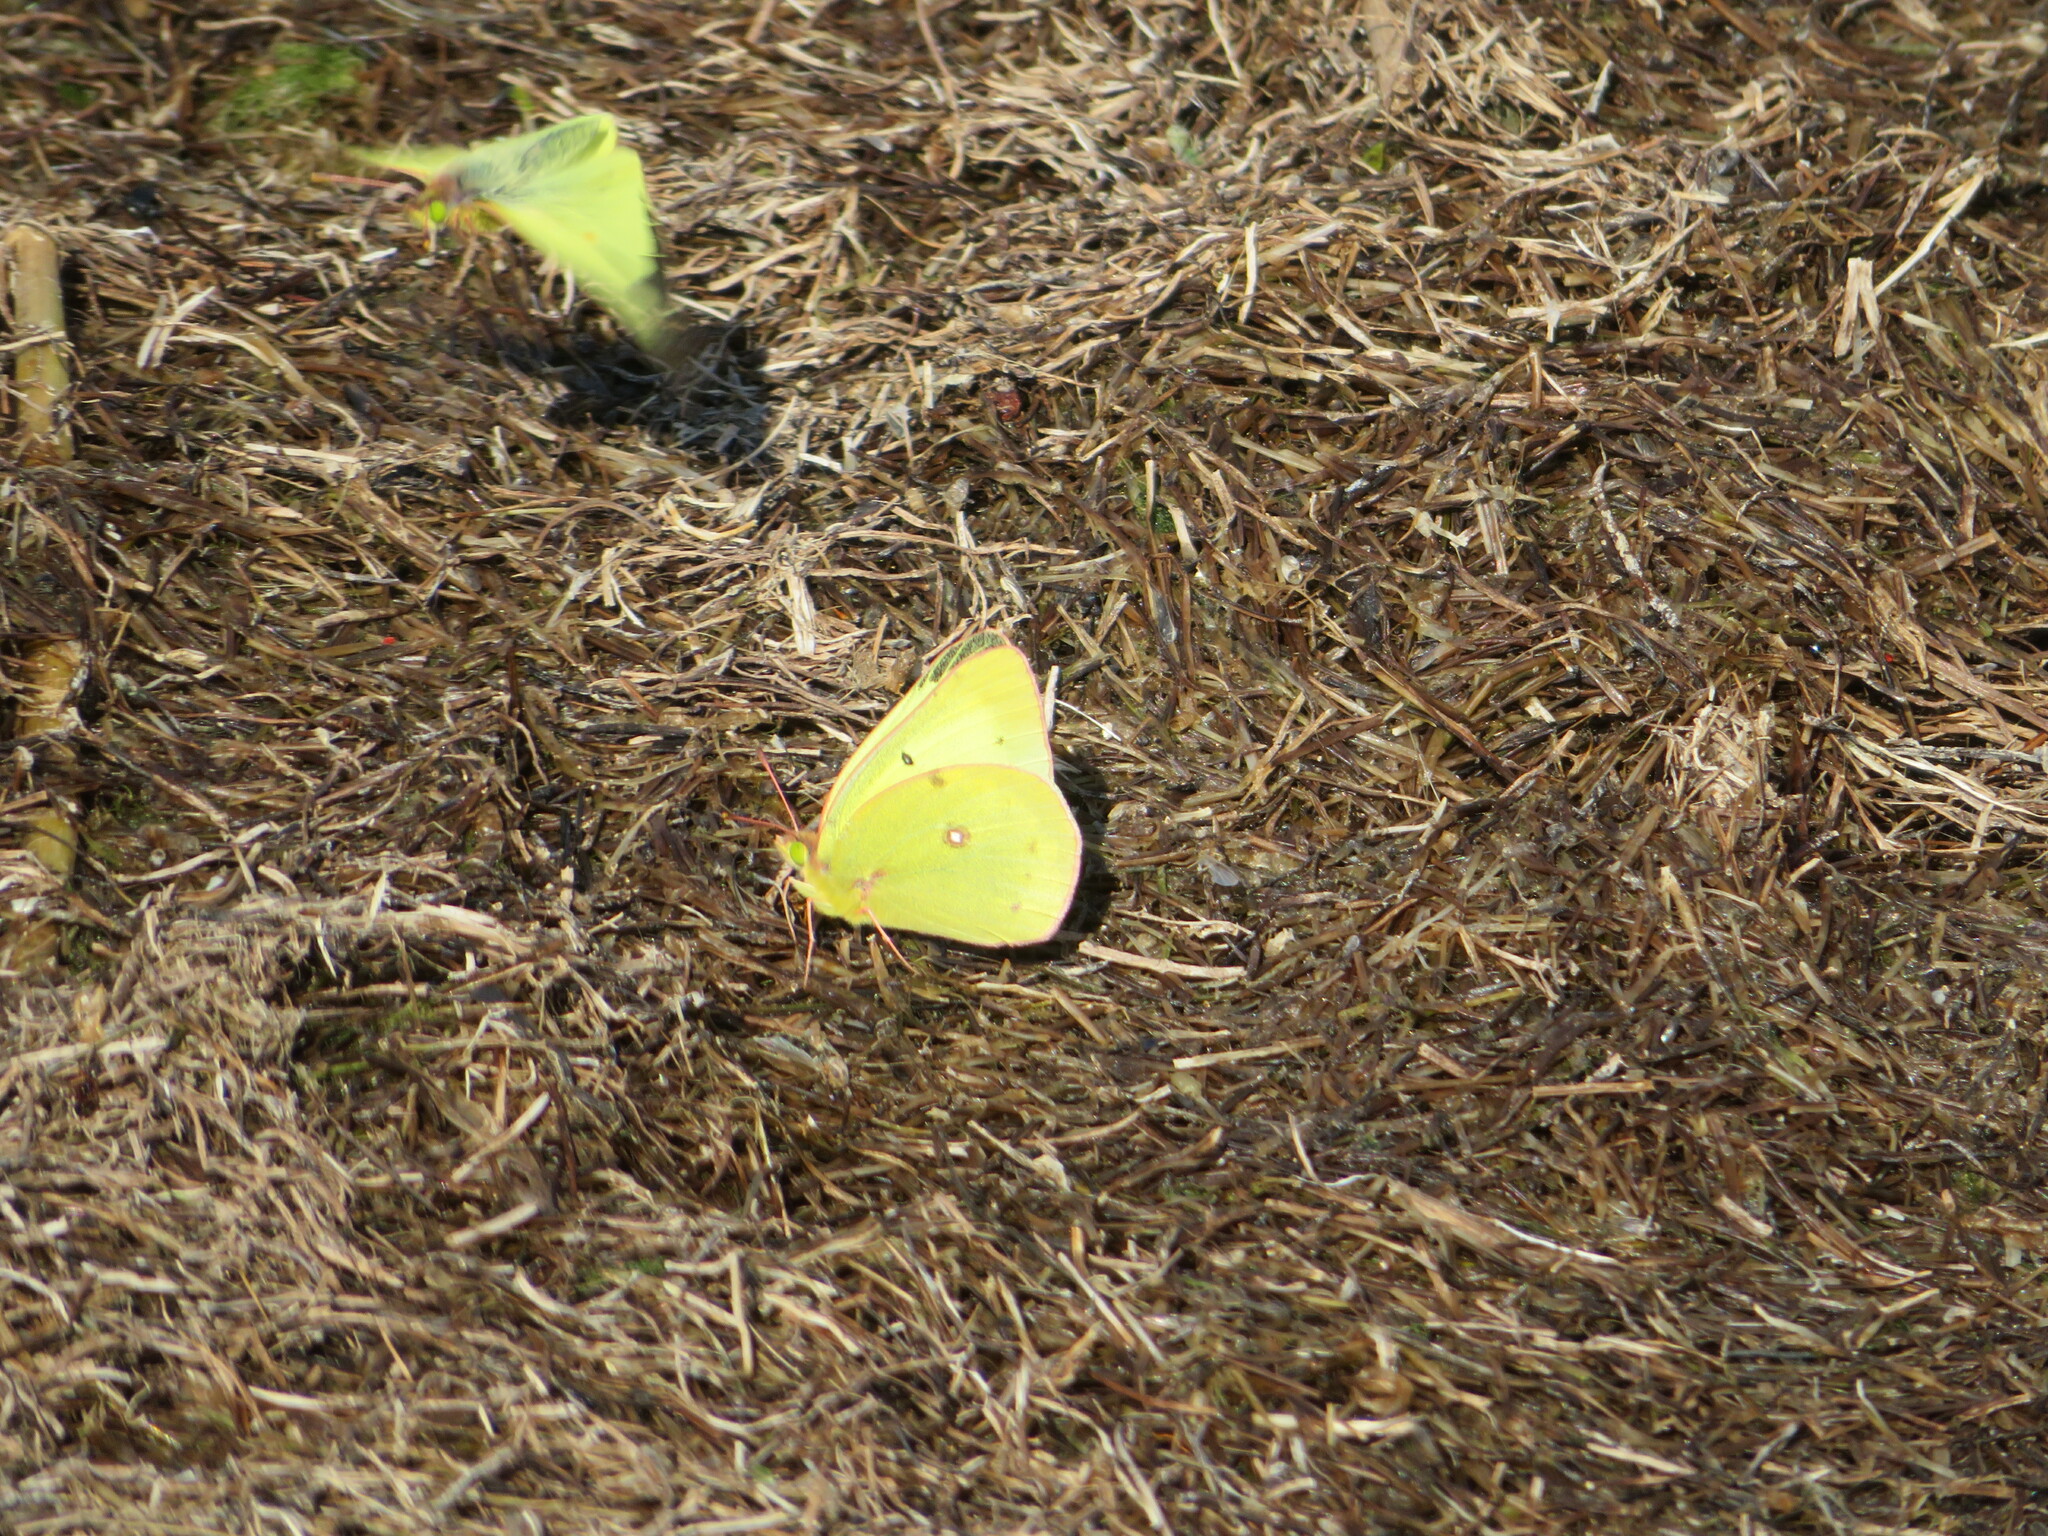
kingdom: Animalia
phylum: Arthropoda
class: Insecta
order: Lepidoptera
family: Pieridae
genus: Colias
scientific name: Colias philodice
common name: Clouded sulphur
